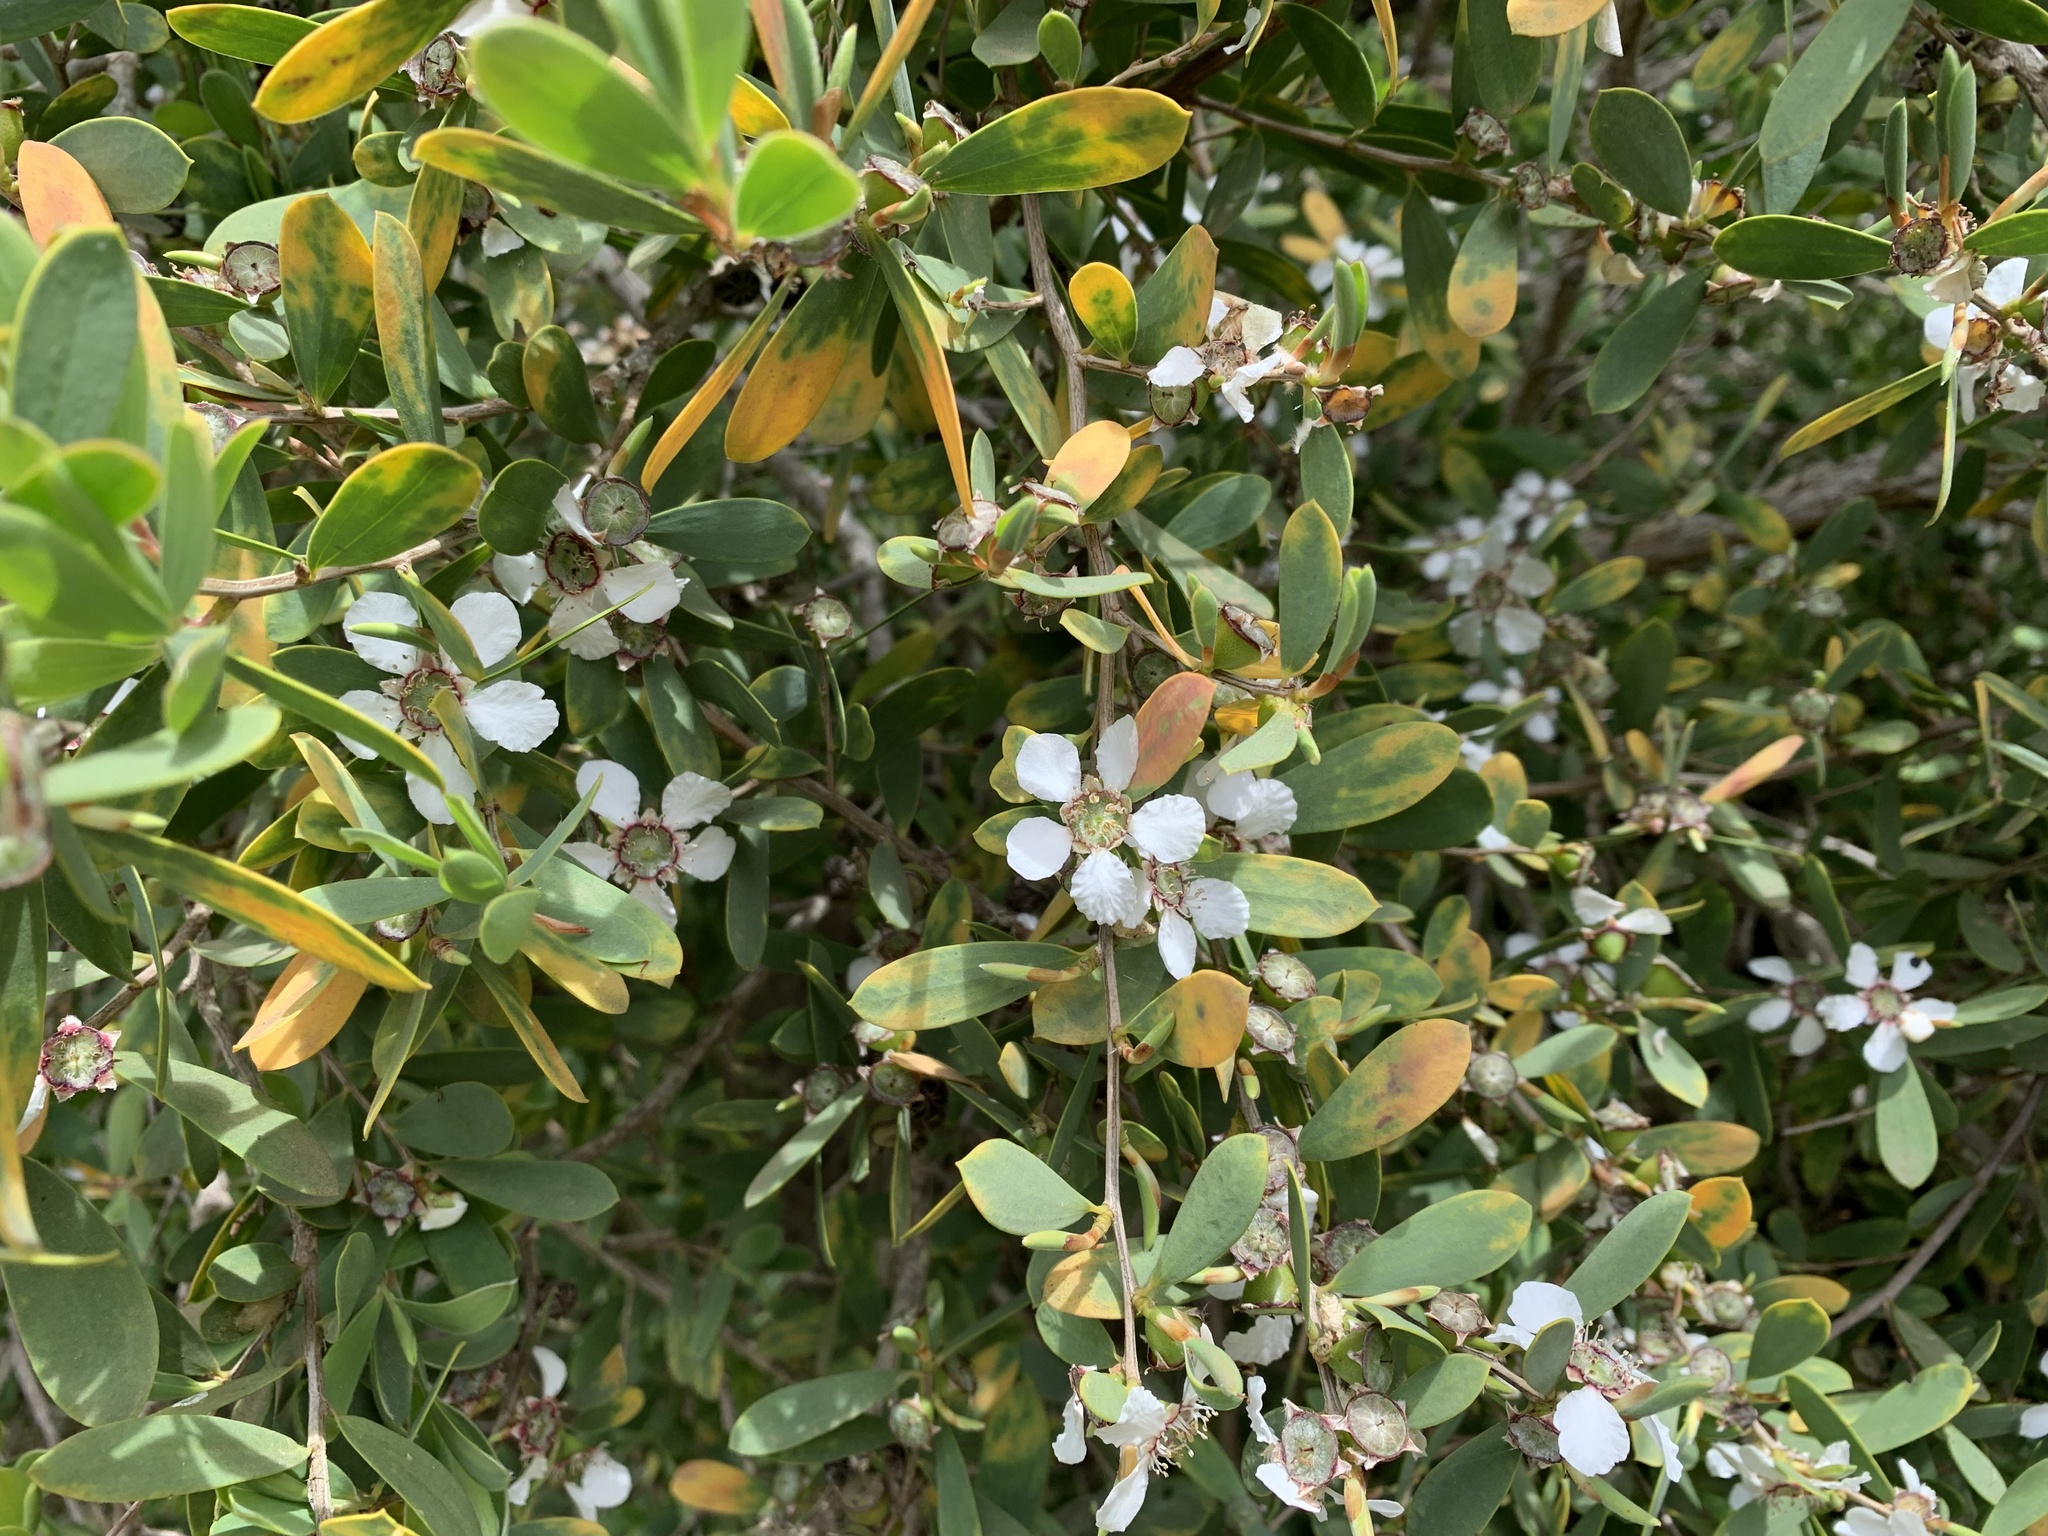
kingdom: Plantae
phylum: Tracheophyta
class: Magnoliopsida
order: Myrtales
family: Myrtaceae
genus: Leptospermum
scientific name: Leptospermum laevigatum
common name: Australian teatree
